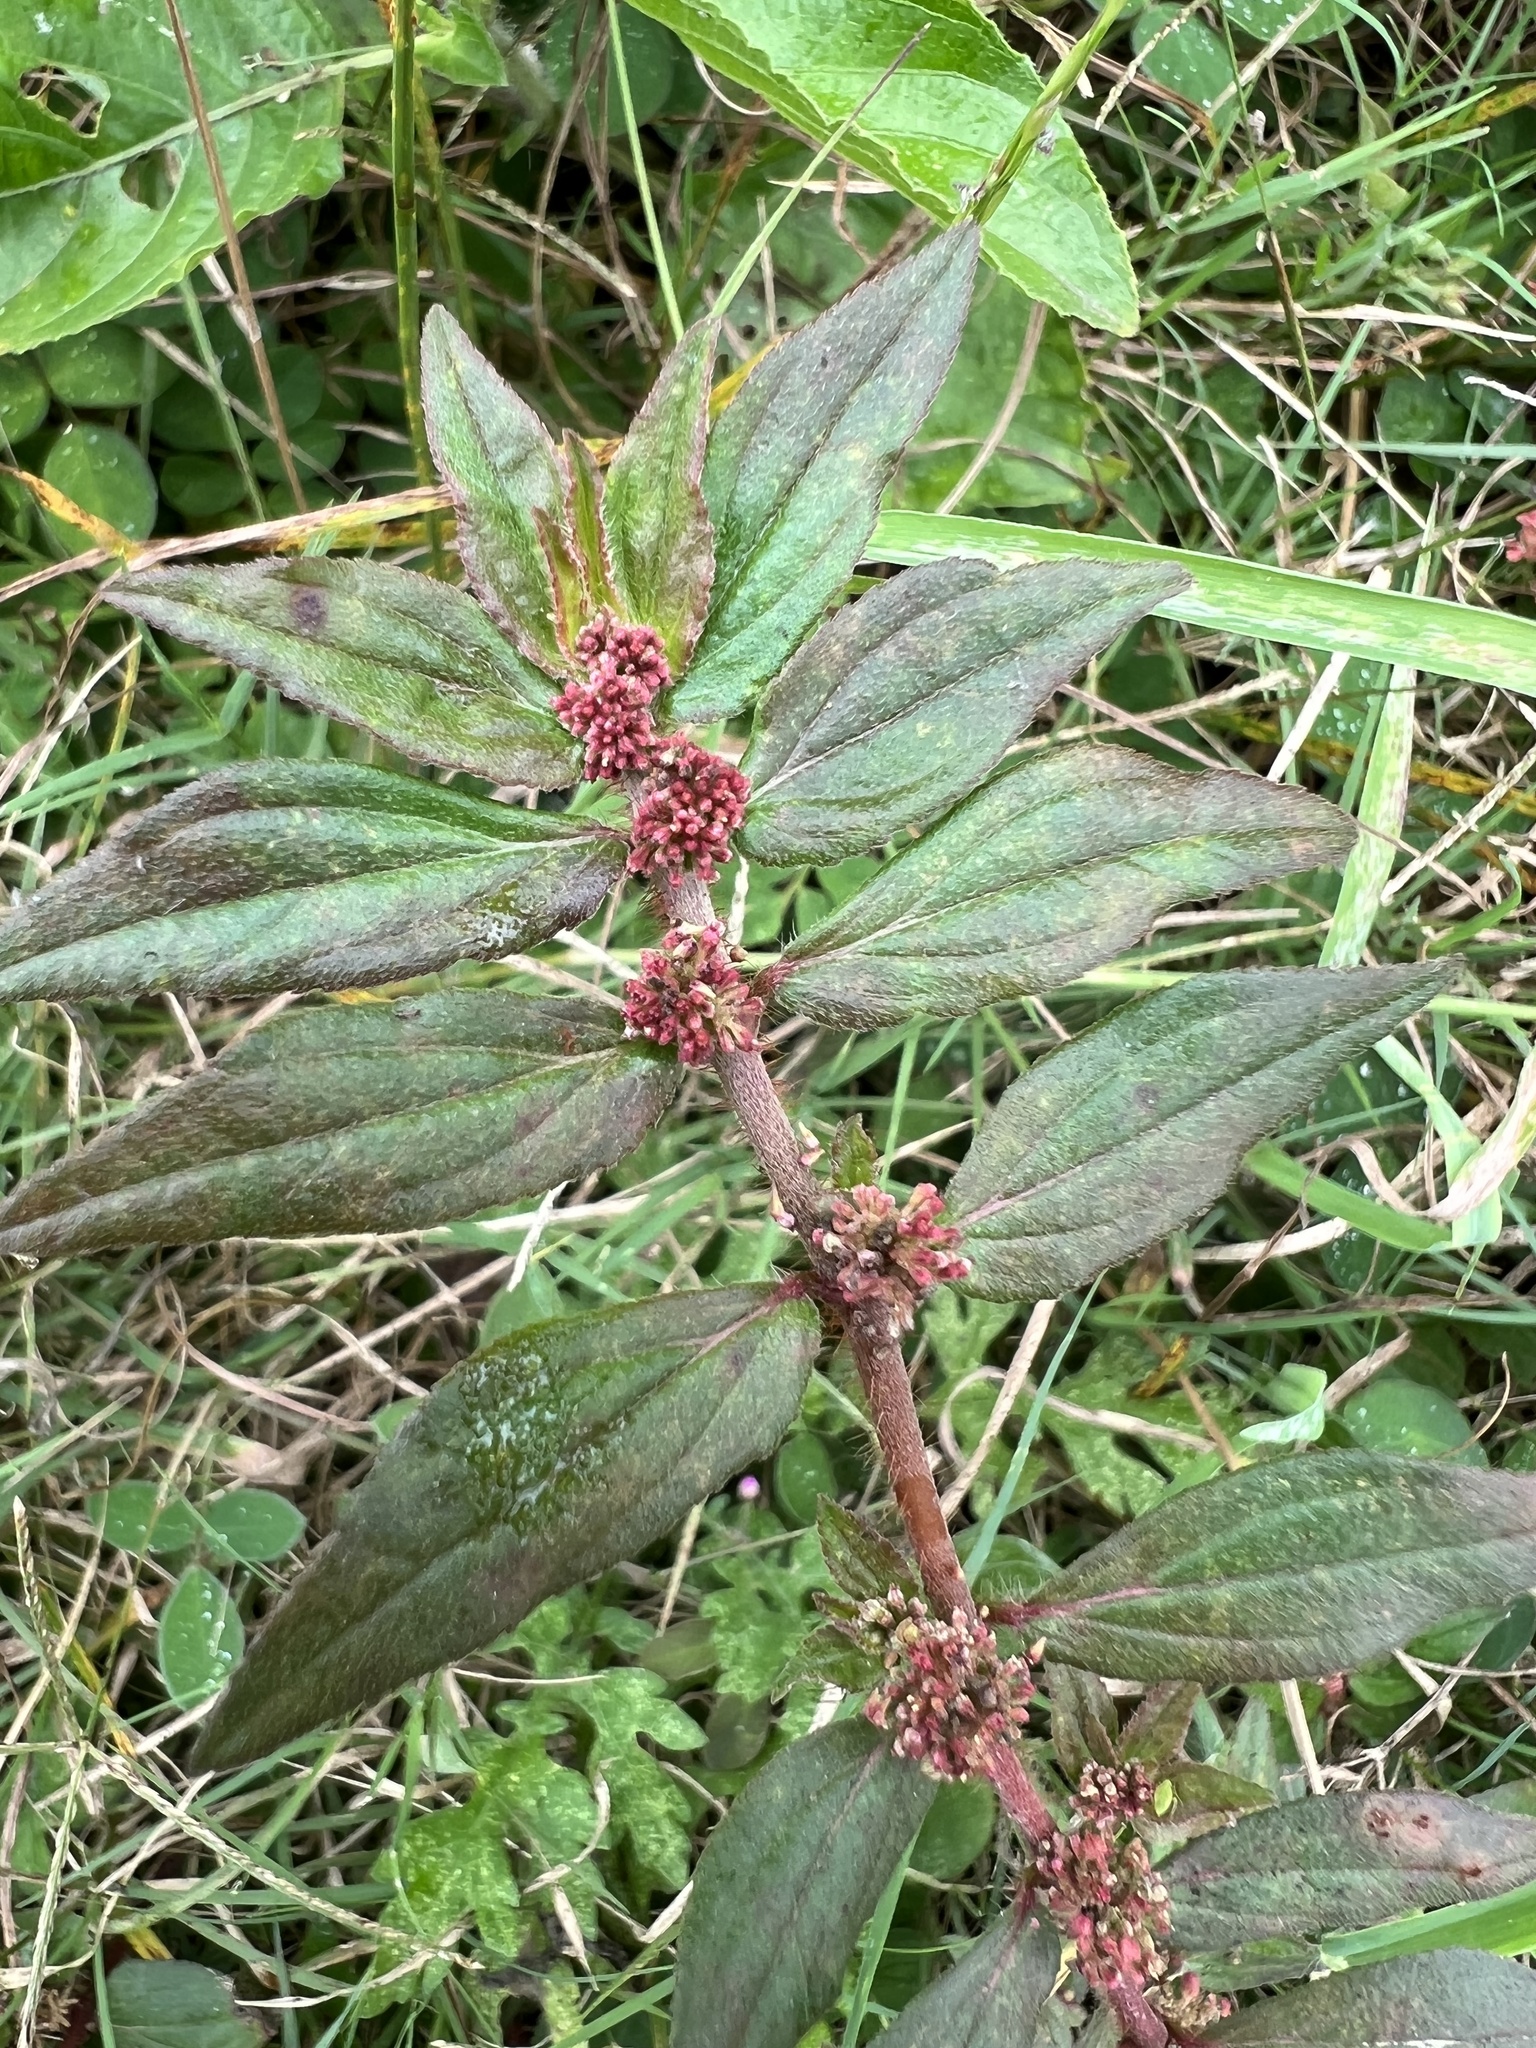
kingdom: Plantae
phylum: Tracheophyta
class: Magnoliopsida
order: Malpighiales
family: Euphorbiaceae
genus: Euphorbia
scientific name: Euphorbia hirta
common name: Pillpod sandmat
